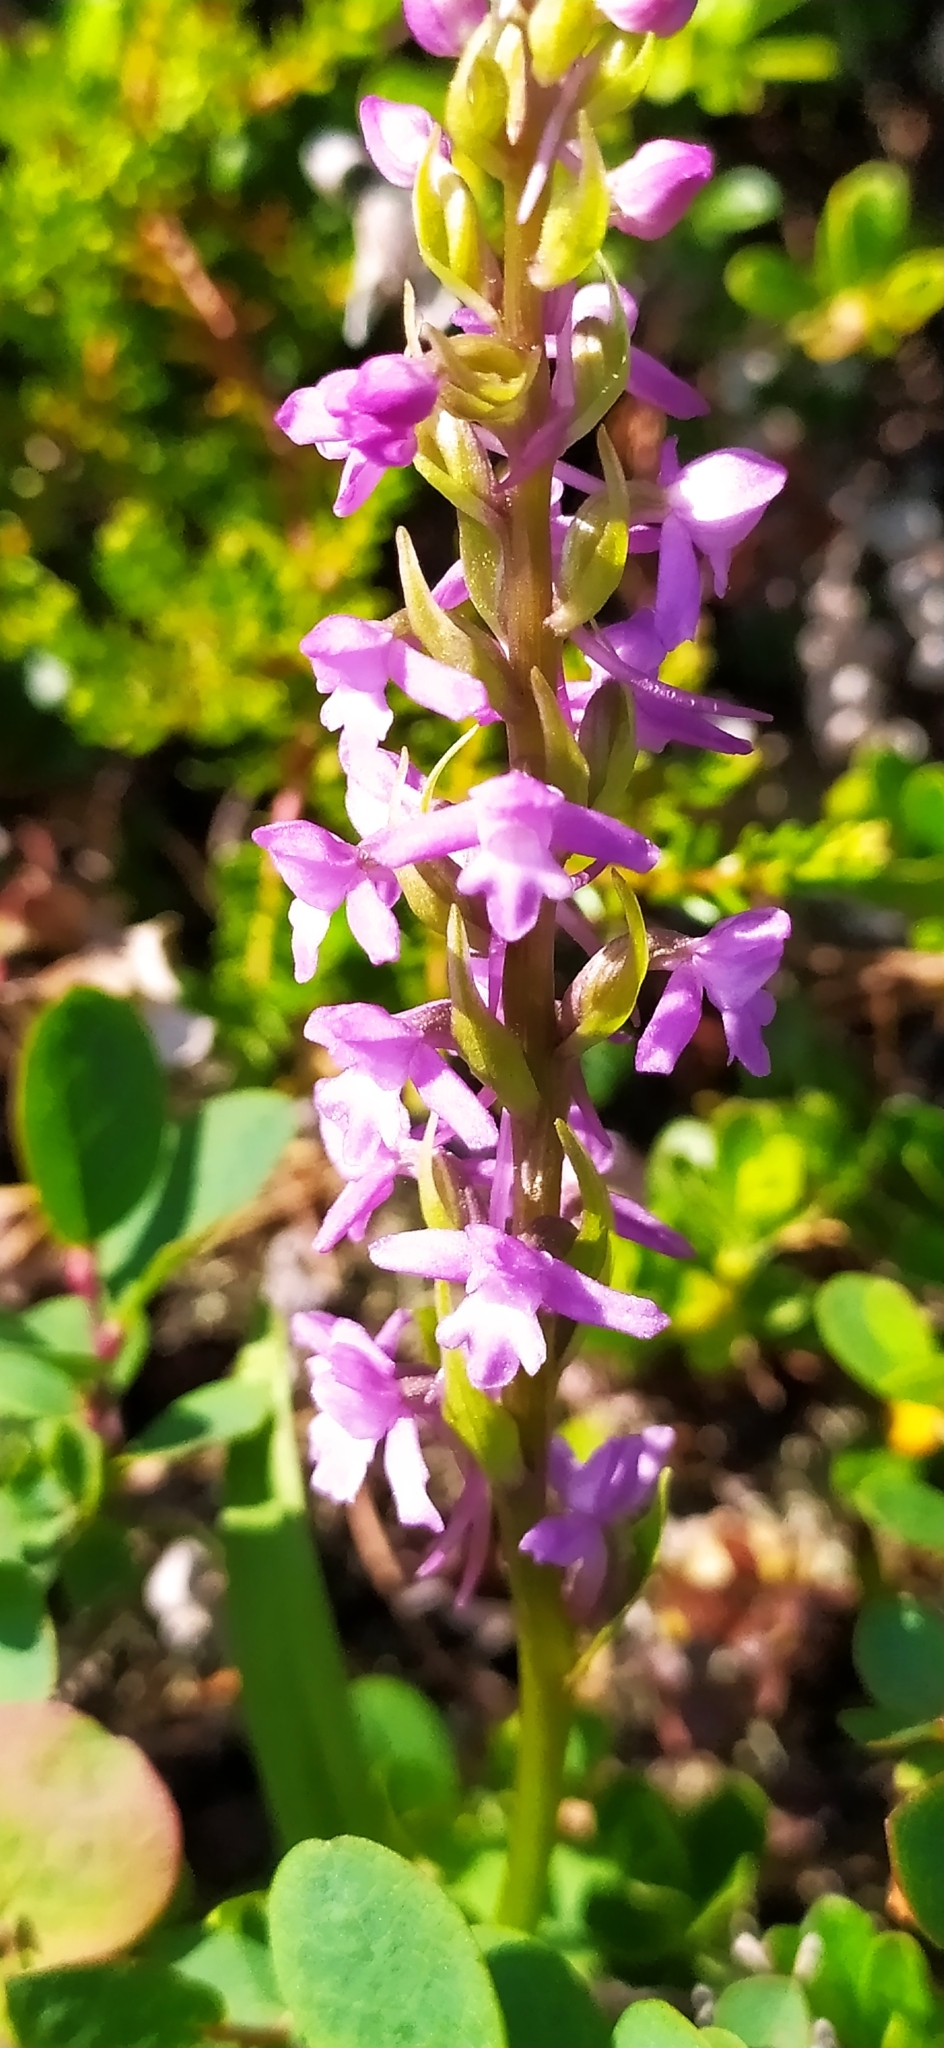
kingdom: Plantae
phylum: Tracheophyta
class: Liliopsida
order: Asparagales
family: Orchidaceae
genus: Gymnadenia
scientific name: Gymnadenia conopsea
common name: Fragrant orchid
